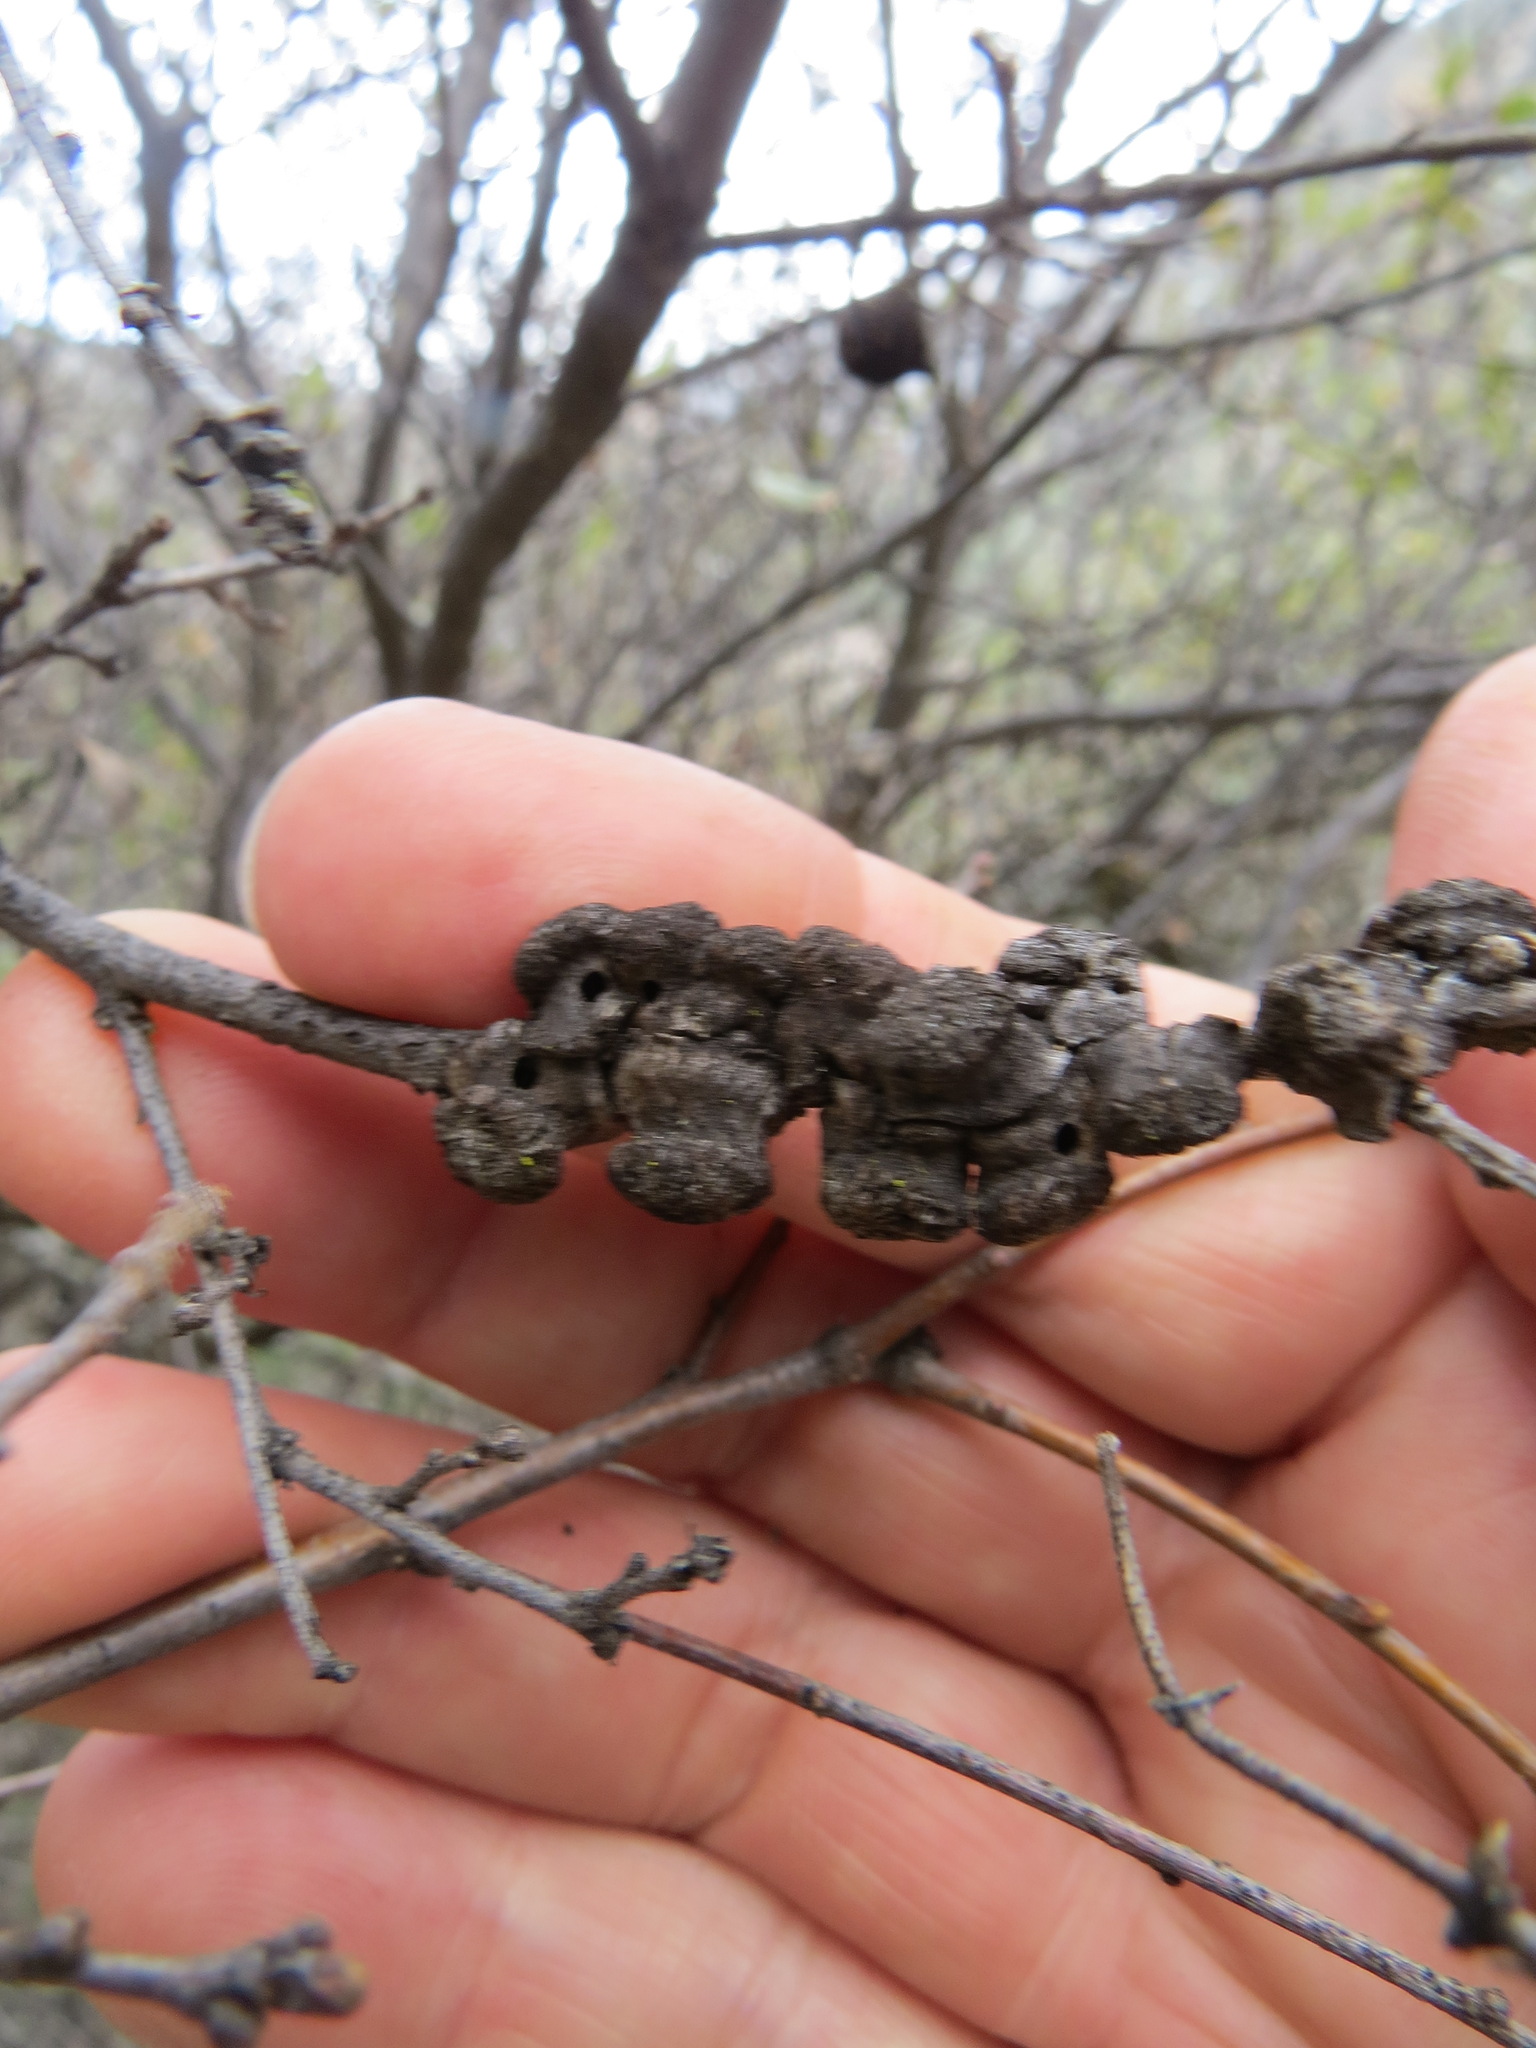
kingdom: Animalia
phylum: Arthropoda
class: Insecta
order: Hymenoptera
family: Cynipidae
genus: Disholcaspis
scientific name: Disholcaspis prehensa
